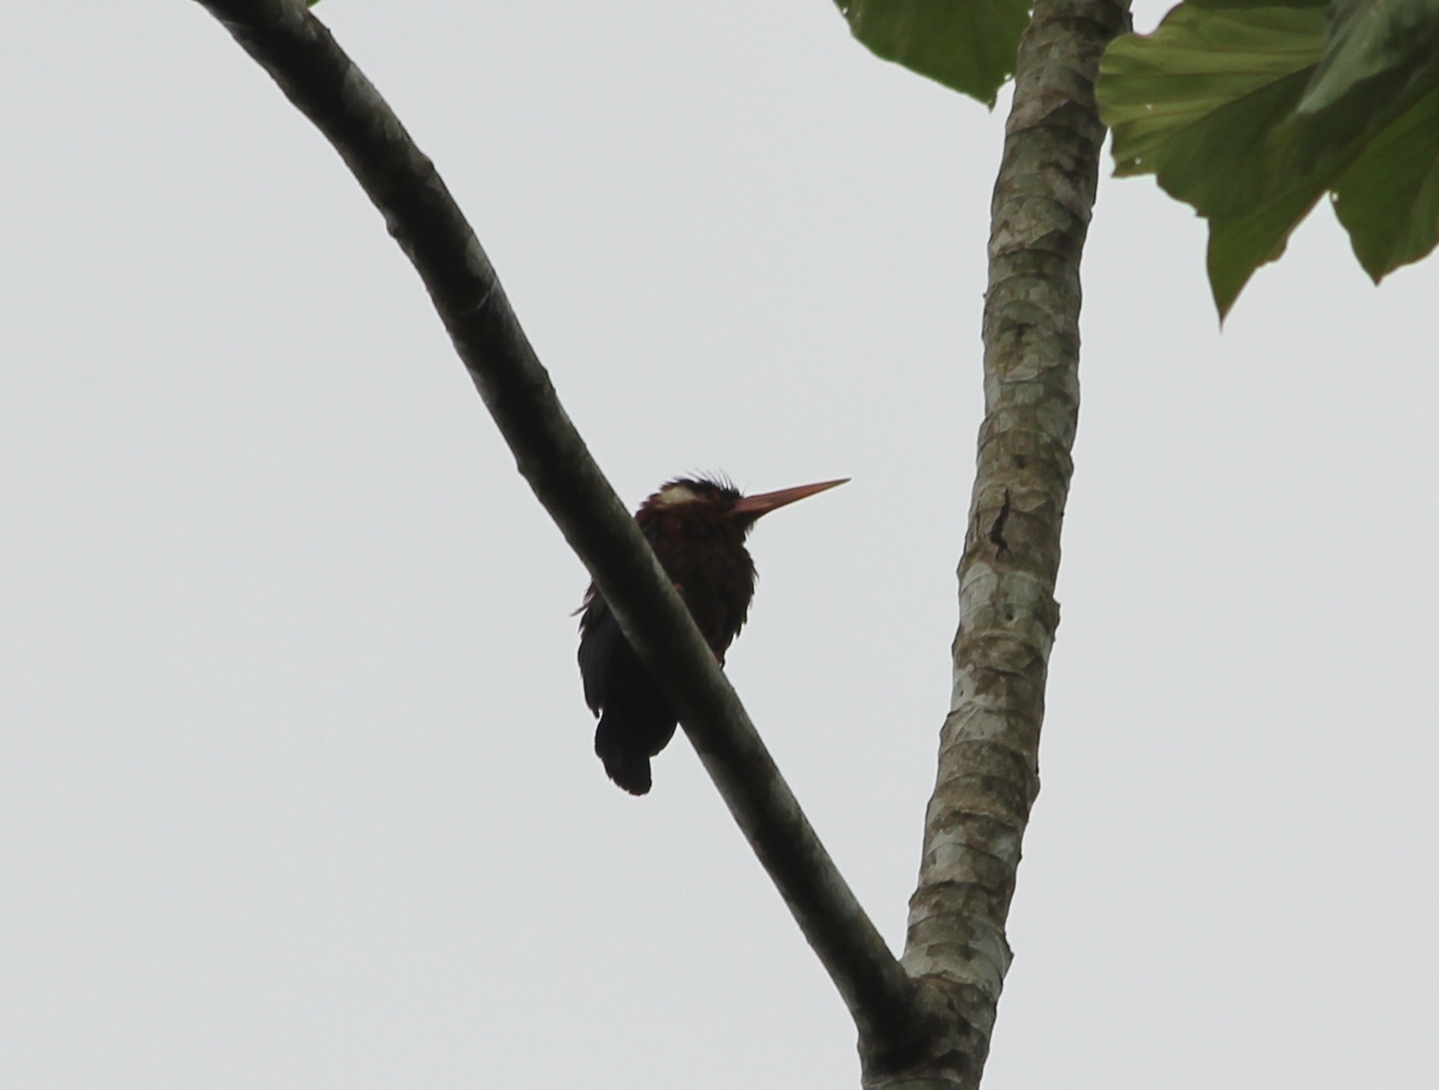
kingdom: Animalia
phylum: Chordata
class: Aves
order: Piciformes
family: Galbulidae
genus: Galbalcyrhynchus
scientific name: Galbalcyrhynchus leucotis
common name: White-eared jacamar
